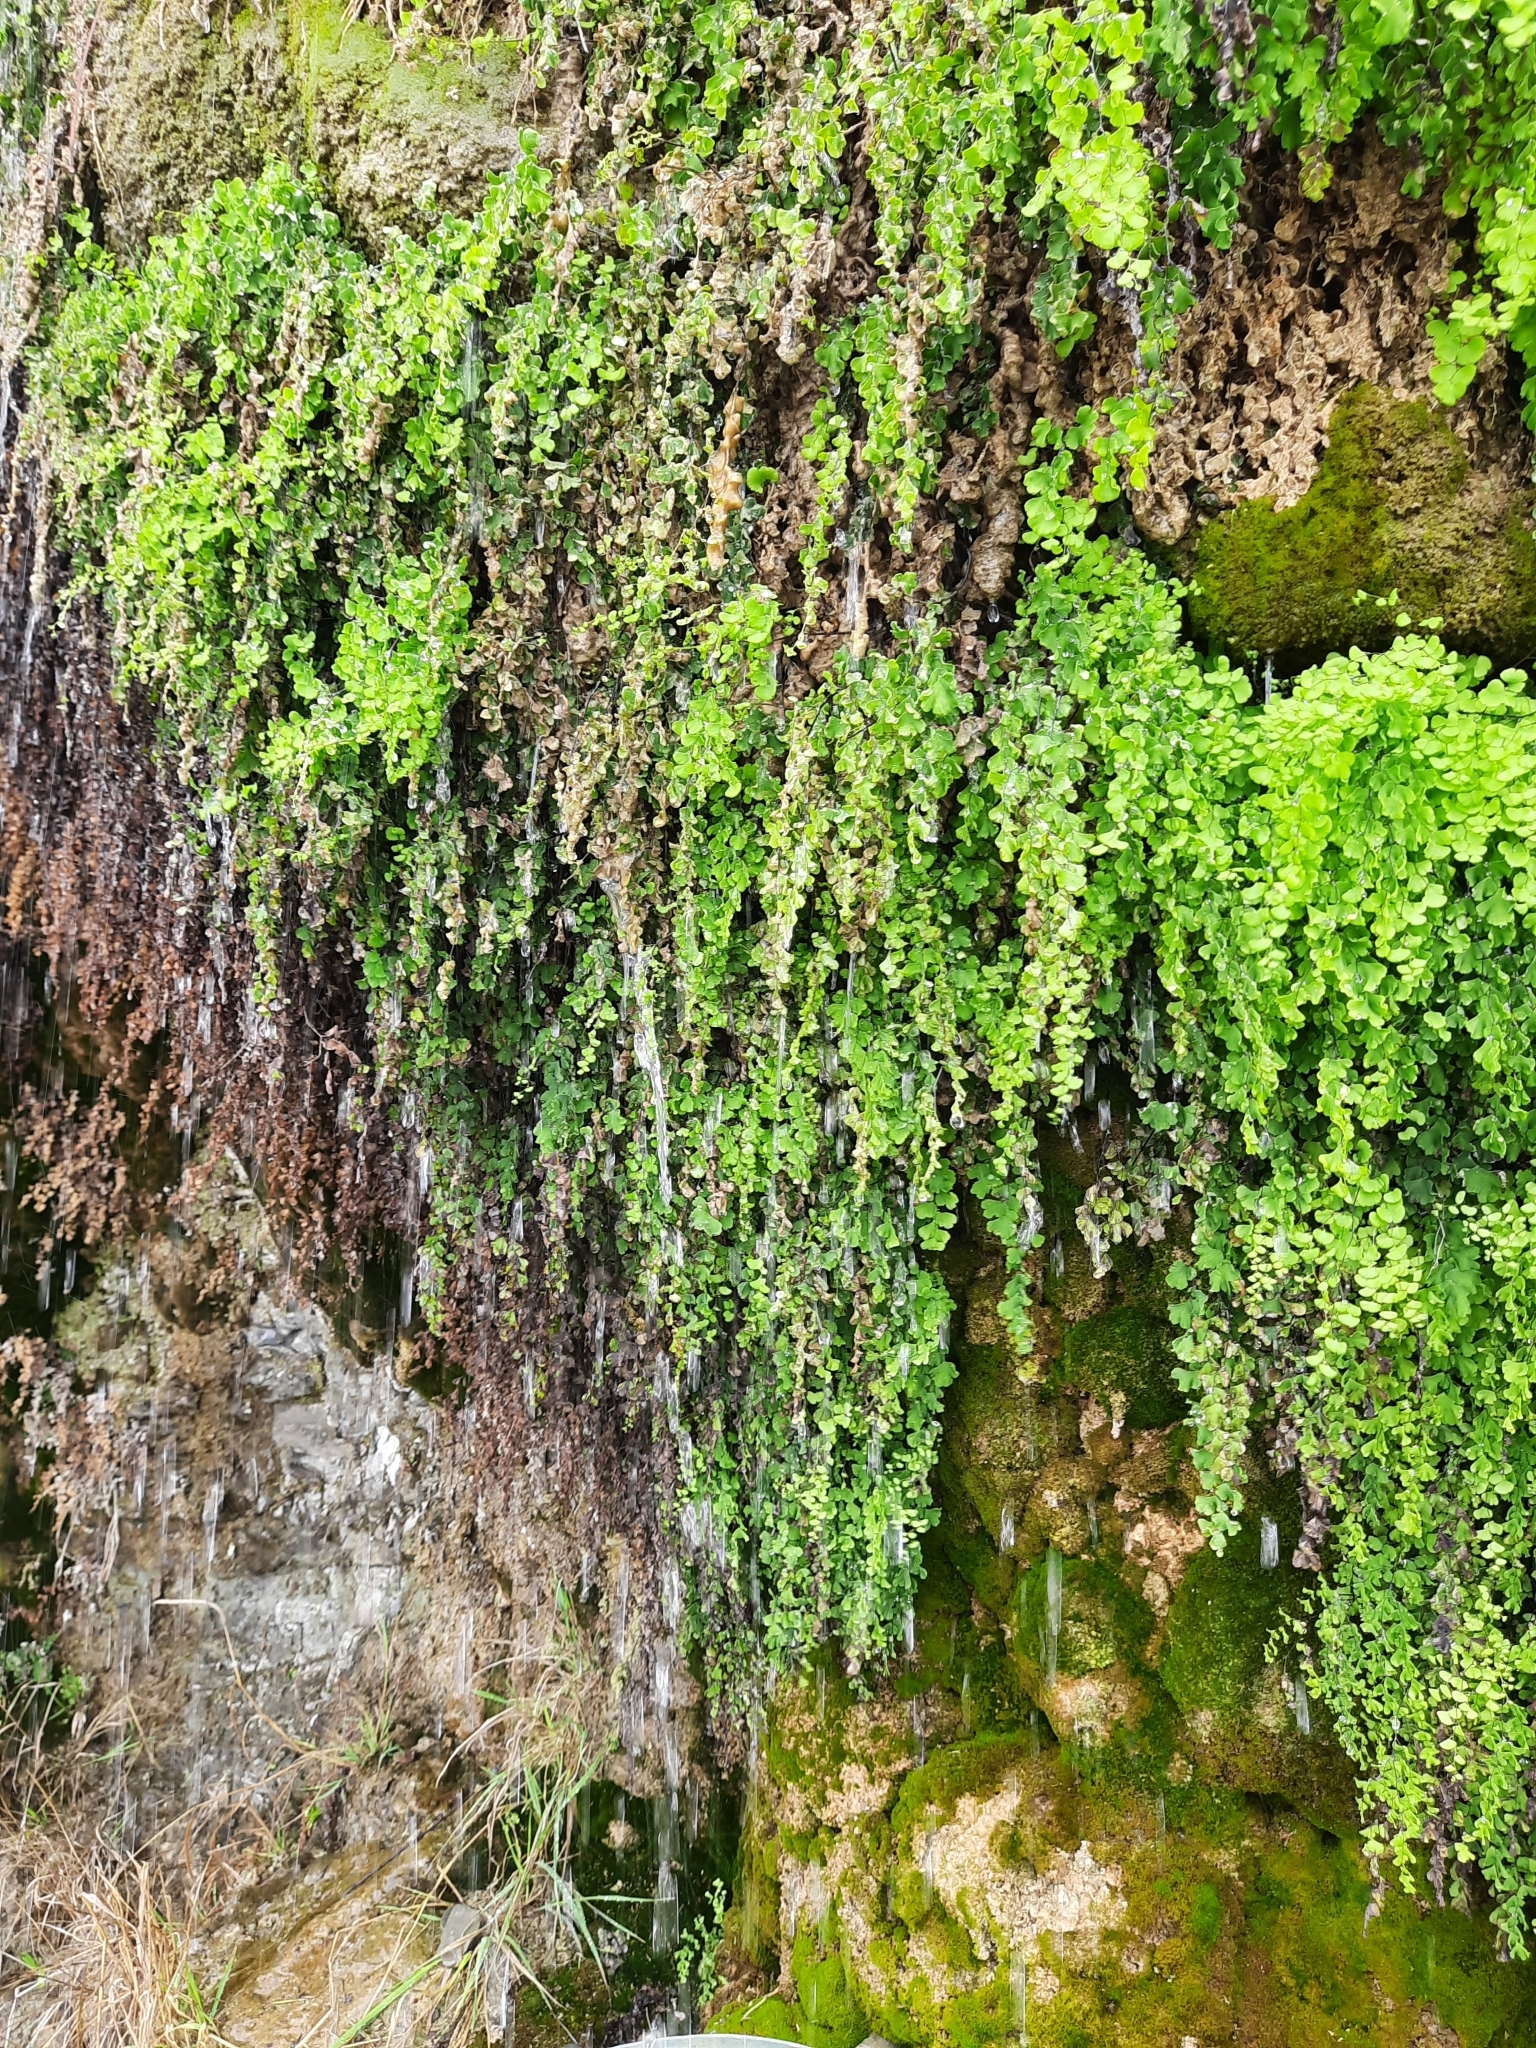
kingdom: Plantae
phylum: Tracheophyta
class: Polypodiopsida
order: Polypodiales
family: Pteridaceae
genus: Adiantum
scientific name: Adiantum capillus-veneris
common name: Maidenhair fern
